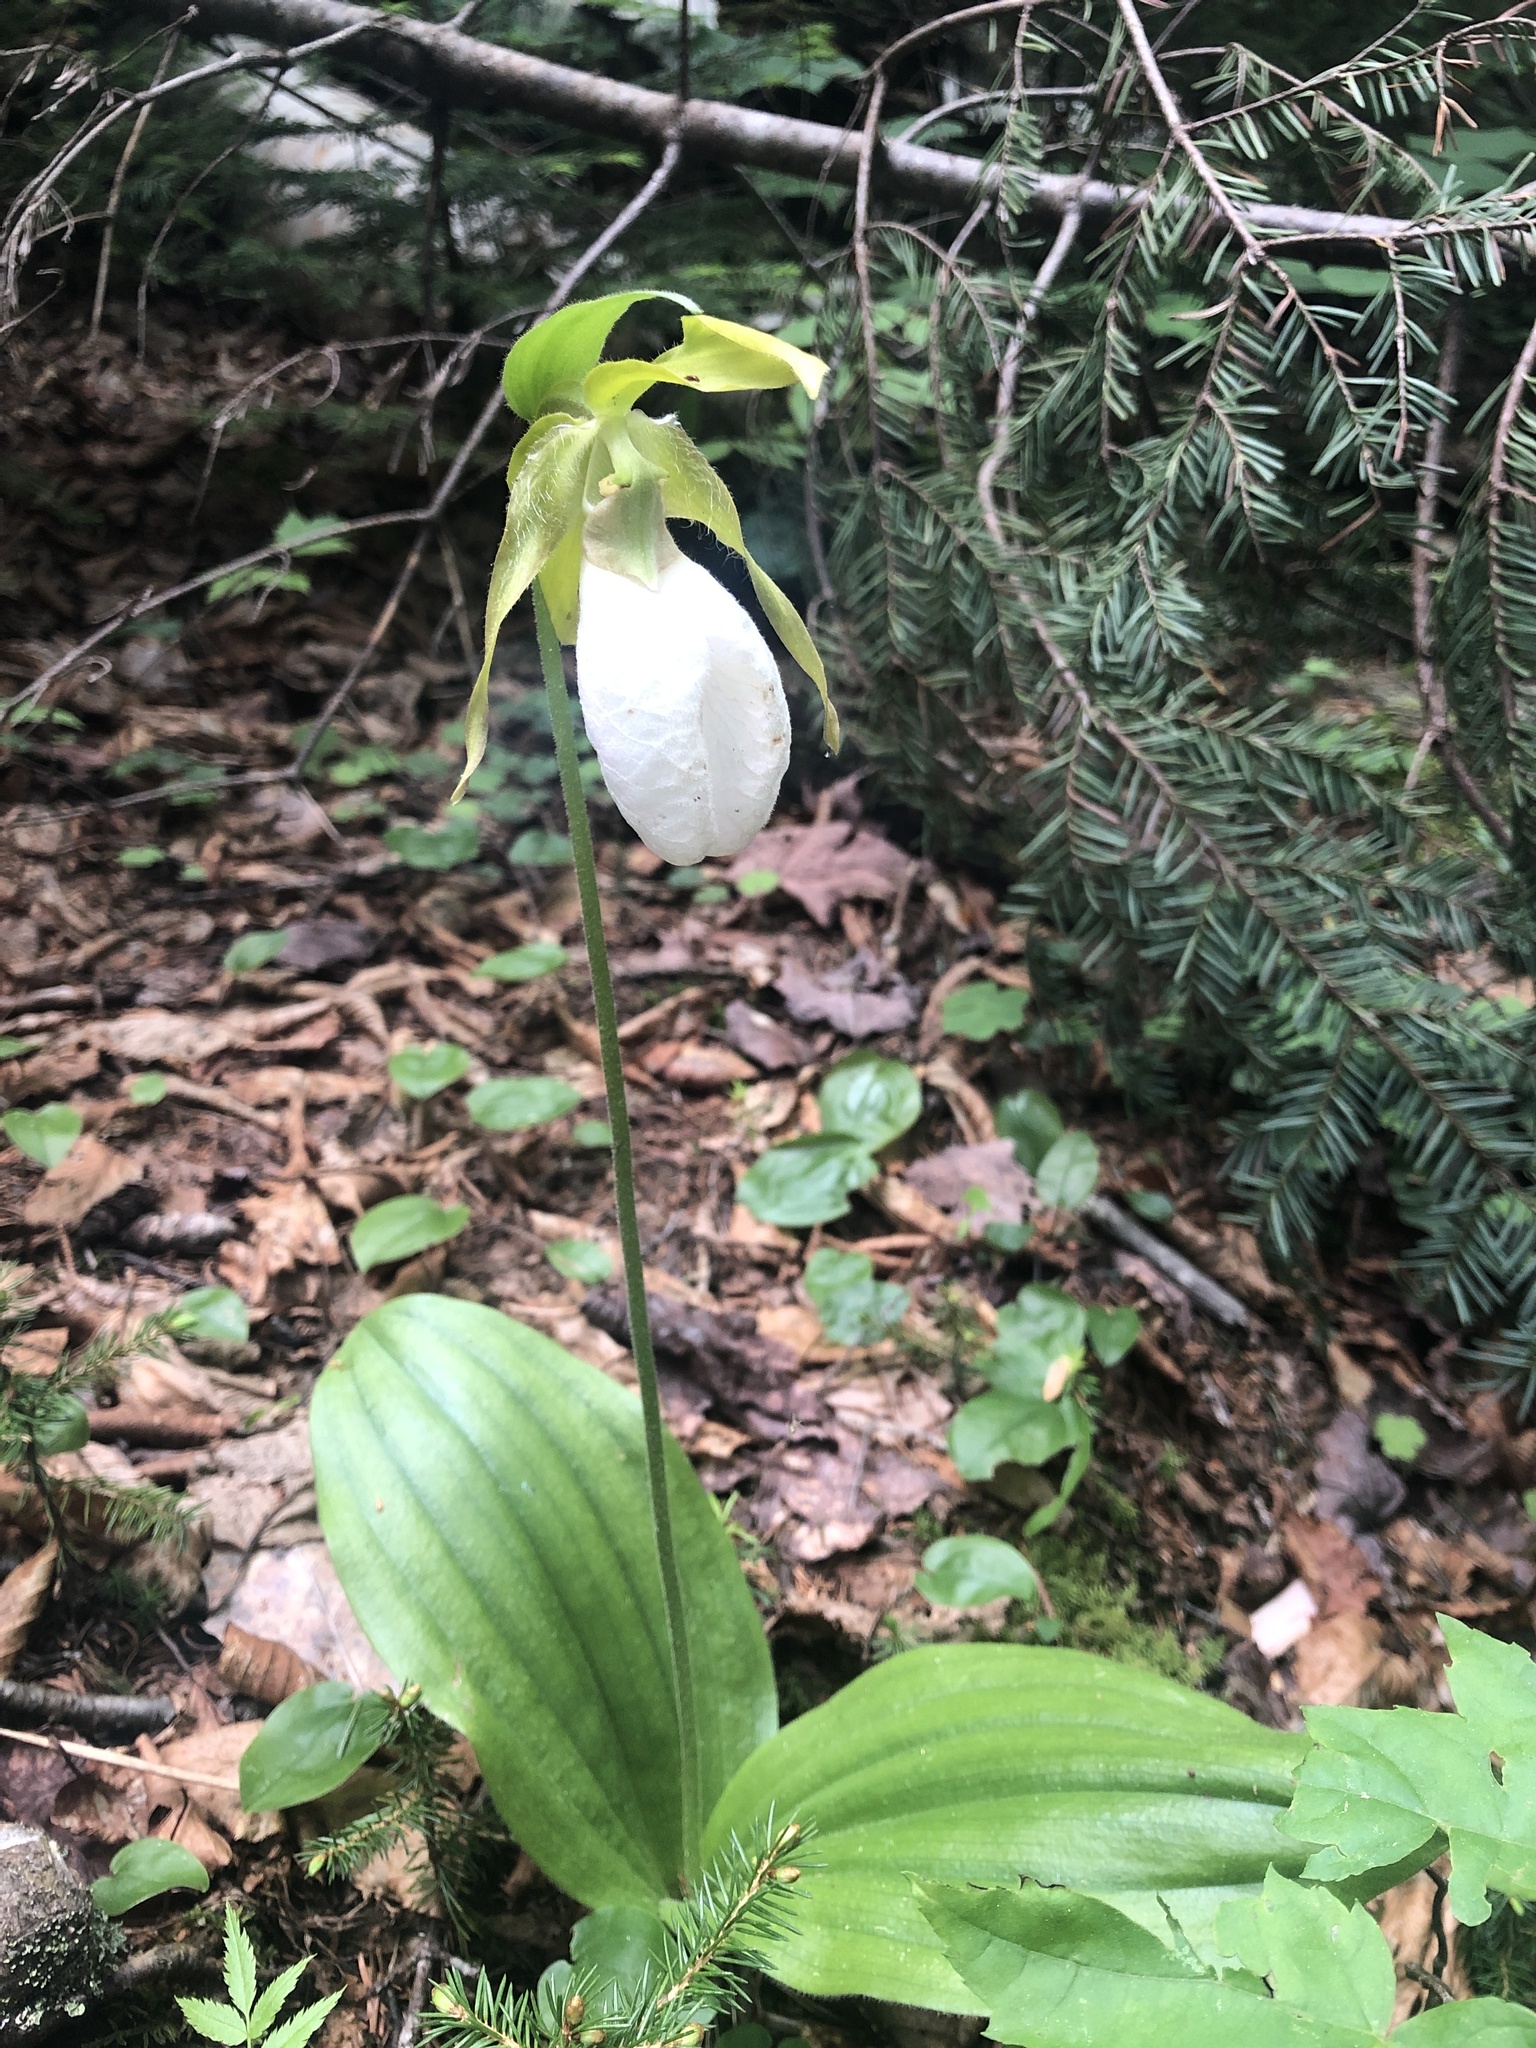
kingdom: Plantae
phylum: Tracheophyta
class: Liliopsida
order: Asparagales
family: Orchidaceae
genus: Cypripedium
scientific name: Cypripedium acaule
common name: Pink lady's-slipper
